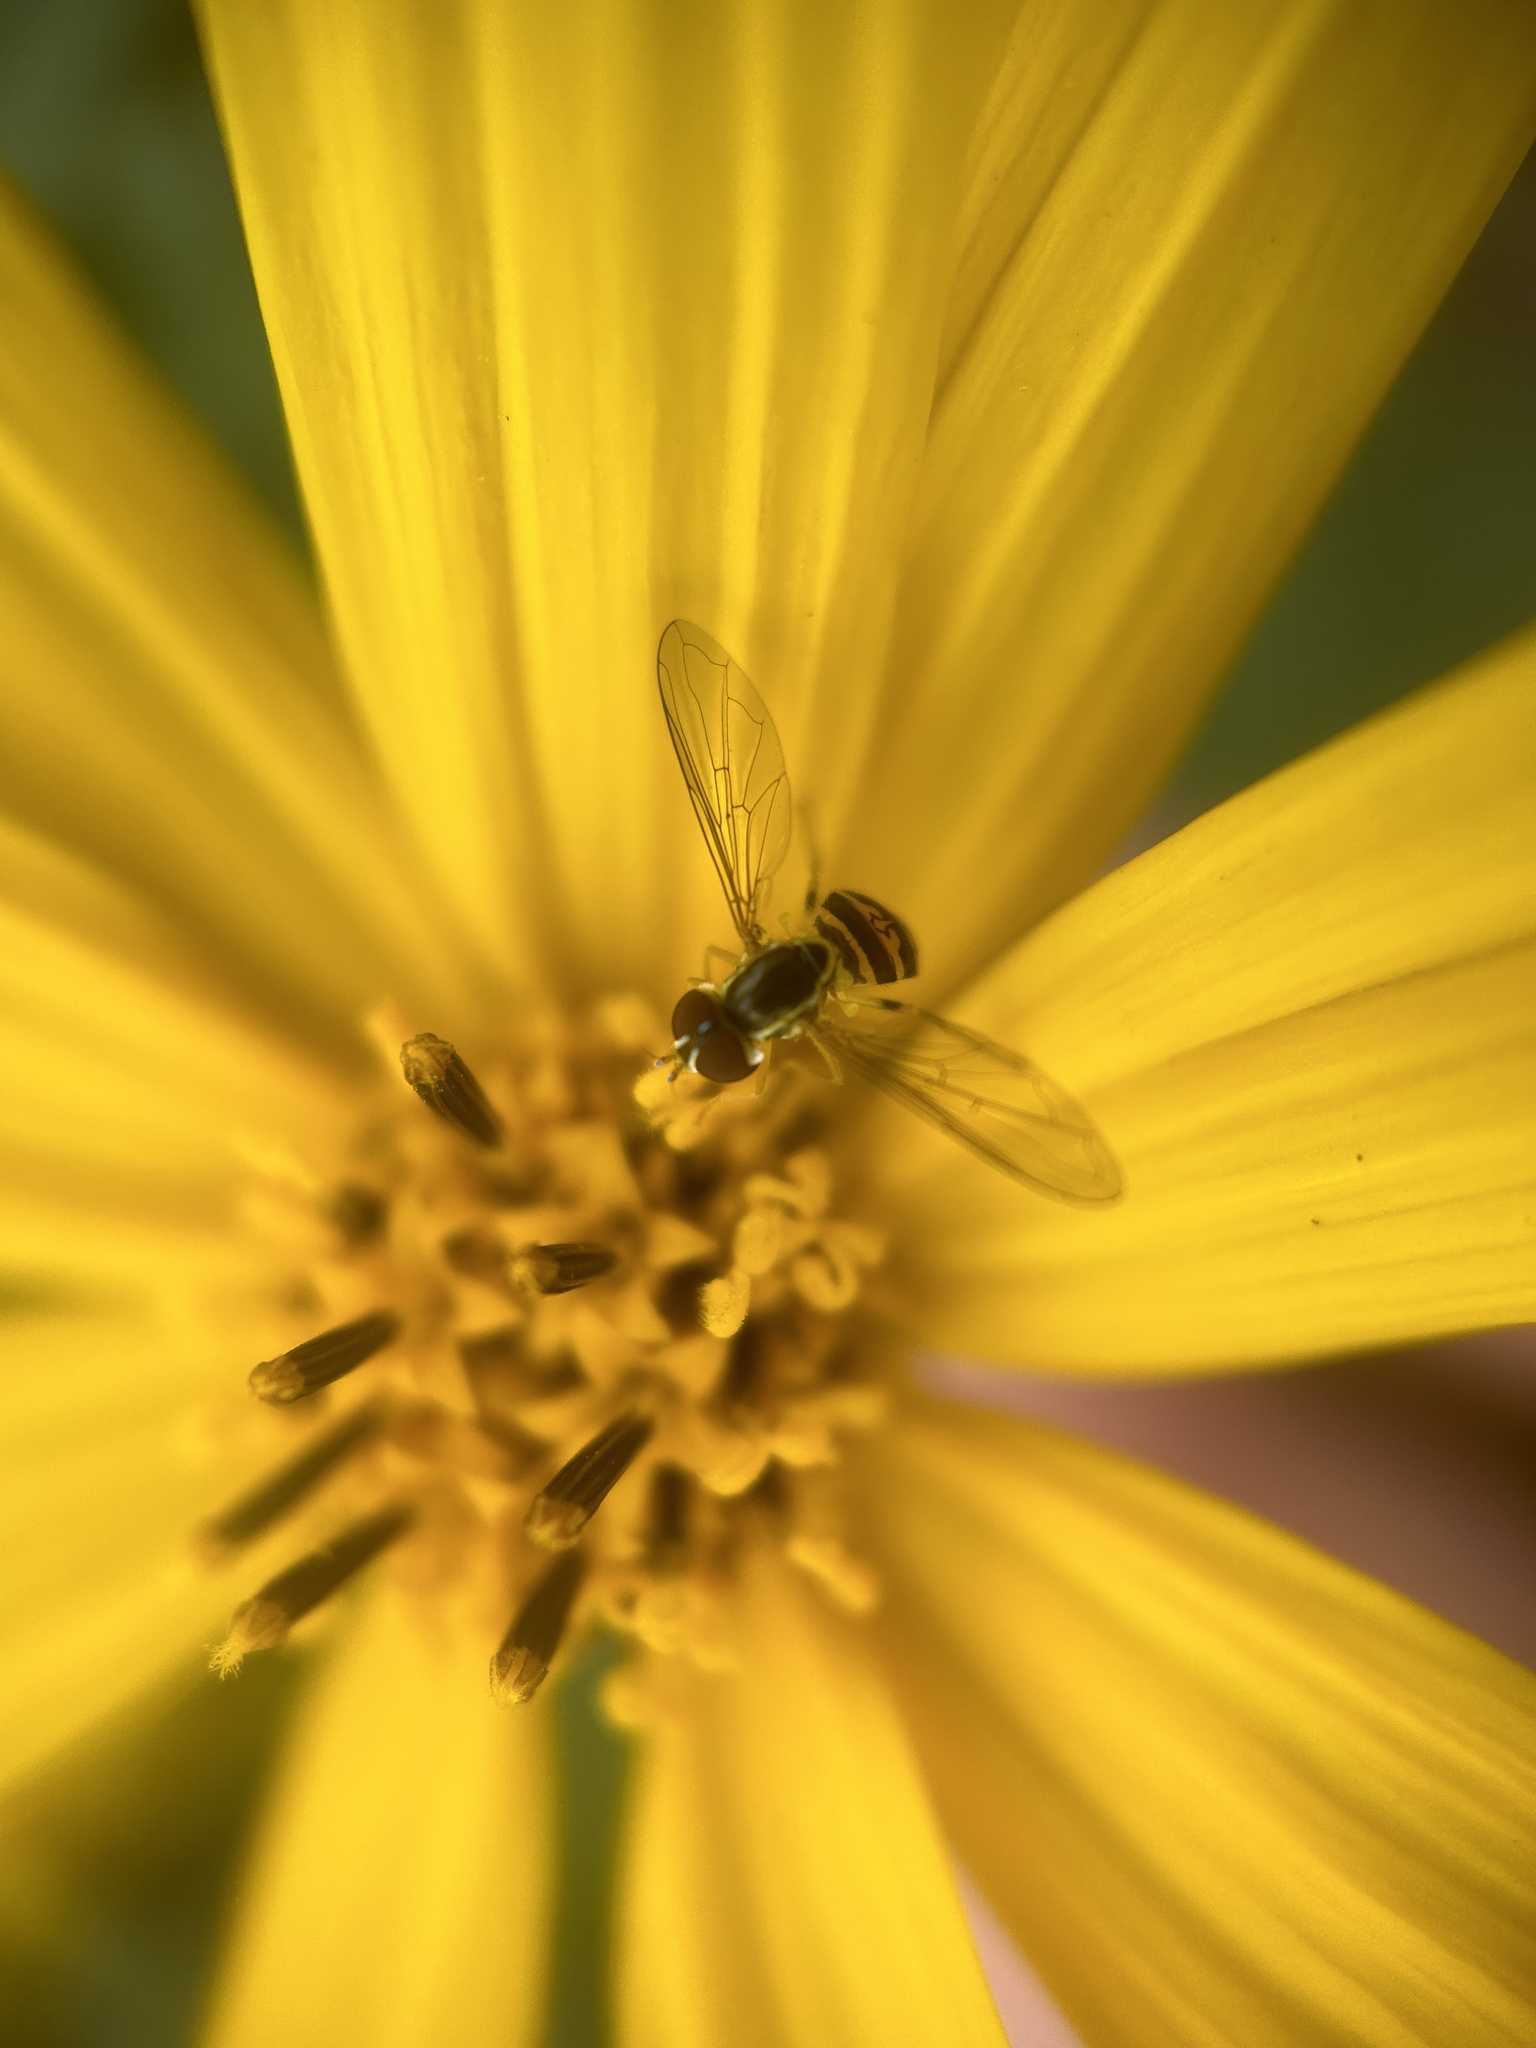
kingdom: Animalia
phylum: Arthropoda
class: Insecta
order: Diptera
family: Syrphidae
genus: Toxomerus
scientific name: Toxomerus geminatus
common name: Eastern calligrapher
